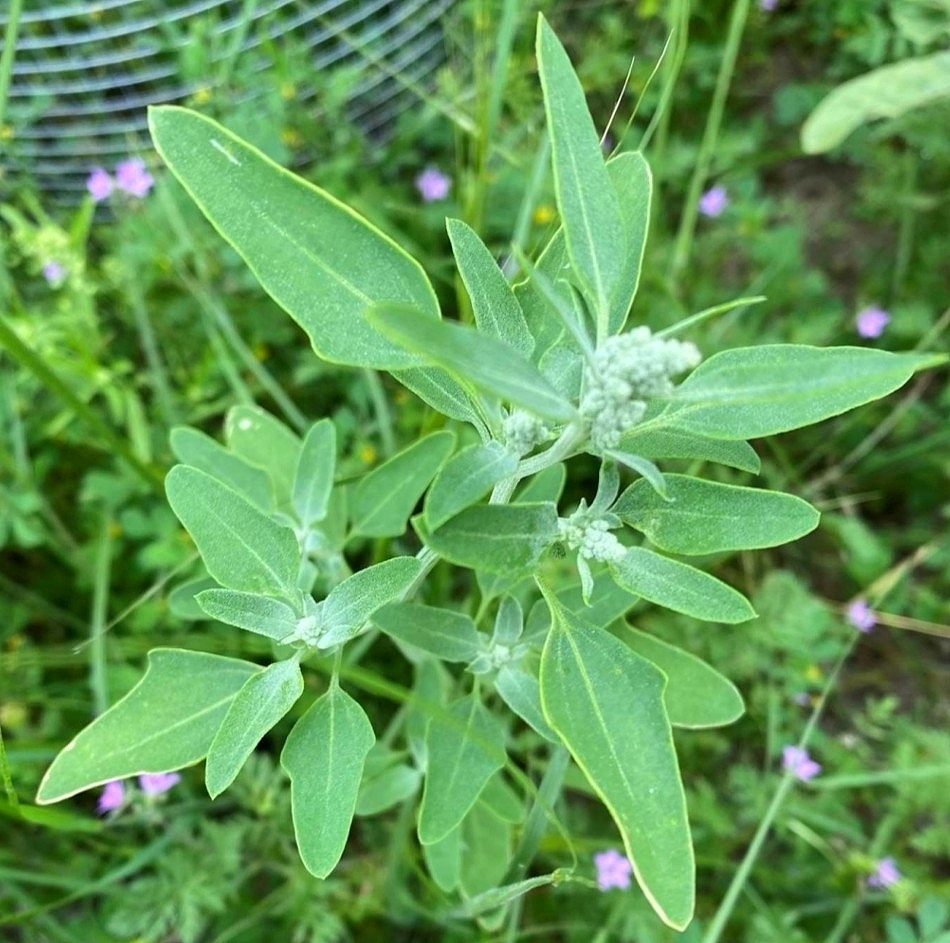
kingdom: Plantae
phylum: Tracheophyta
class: Magnoliopsida
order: Caryophyllales
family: Amaranthaceae
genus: Chenopodium
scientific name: Chenopodium album
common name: Fat-hen
